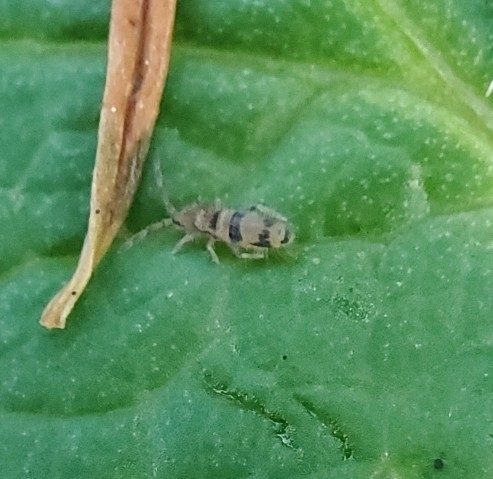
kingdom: Animalia
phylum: Arthropoda
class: Collembola
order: Entomobryomorpha
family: Entomobryidae
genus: Entomobrya
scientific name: Entomobrya triangularis
